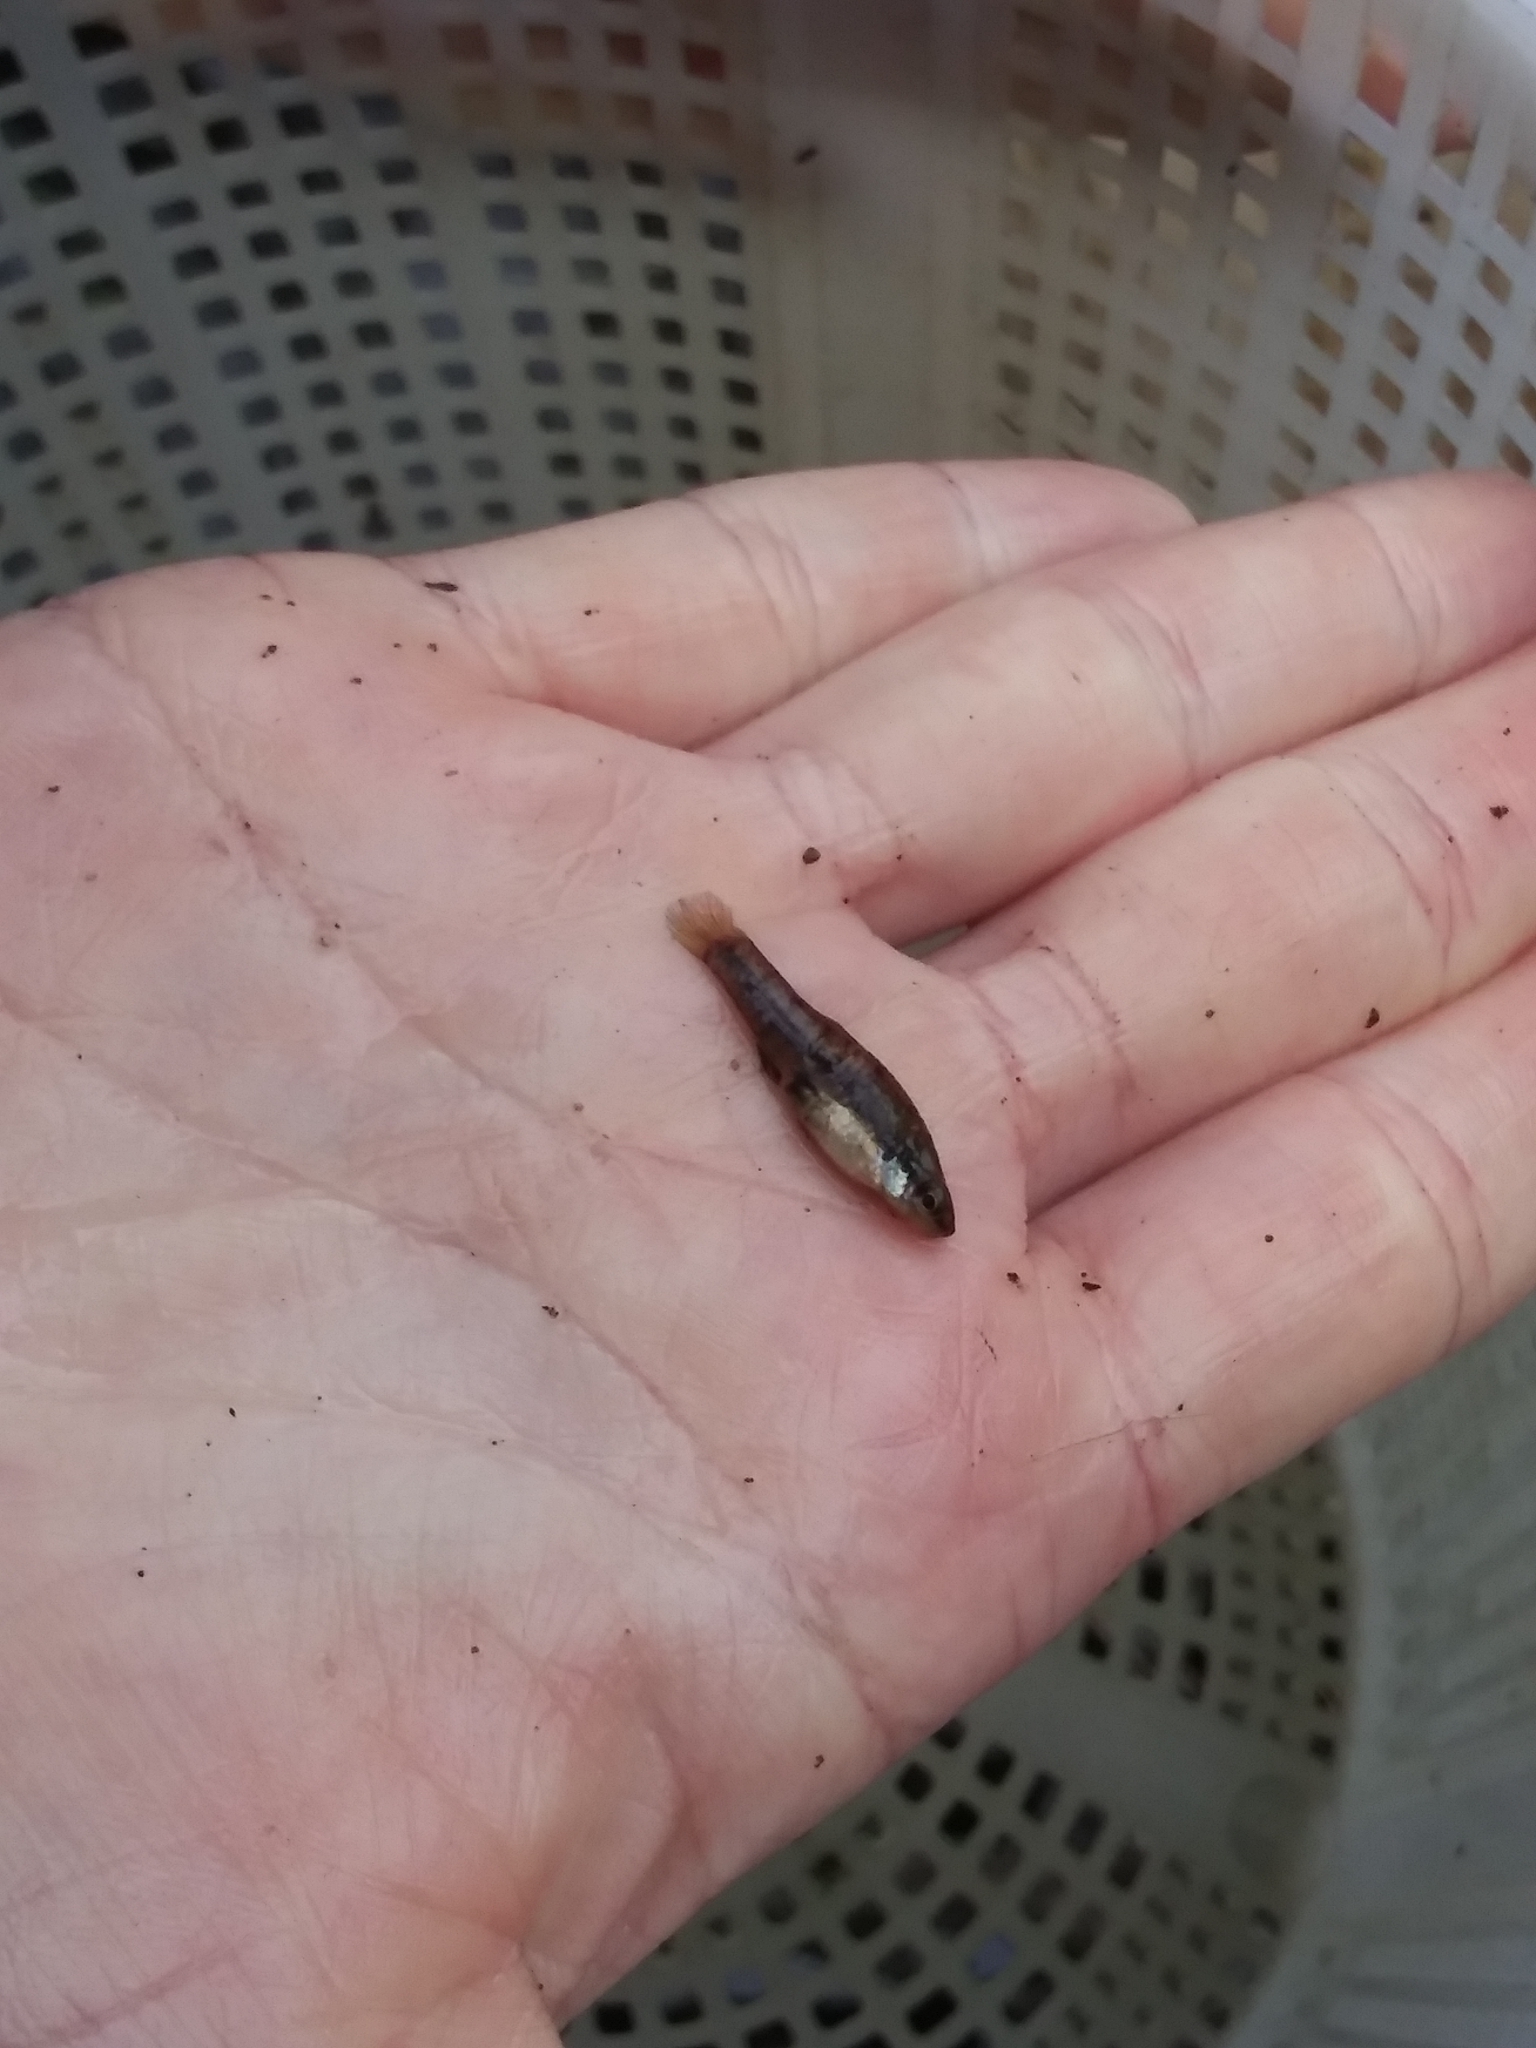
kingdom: Animalia
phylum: Chordata
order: Cyprinodontiformes
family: Poeciliidae
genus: Heterandria
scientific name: Heterandria formosa
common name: Least killifish
